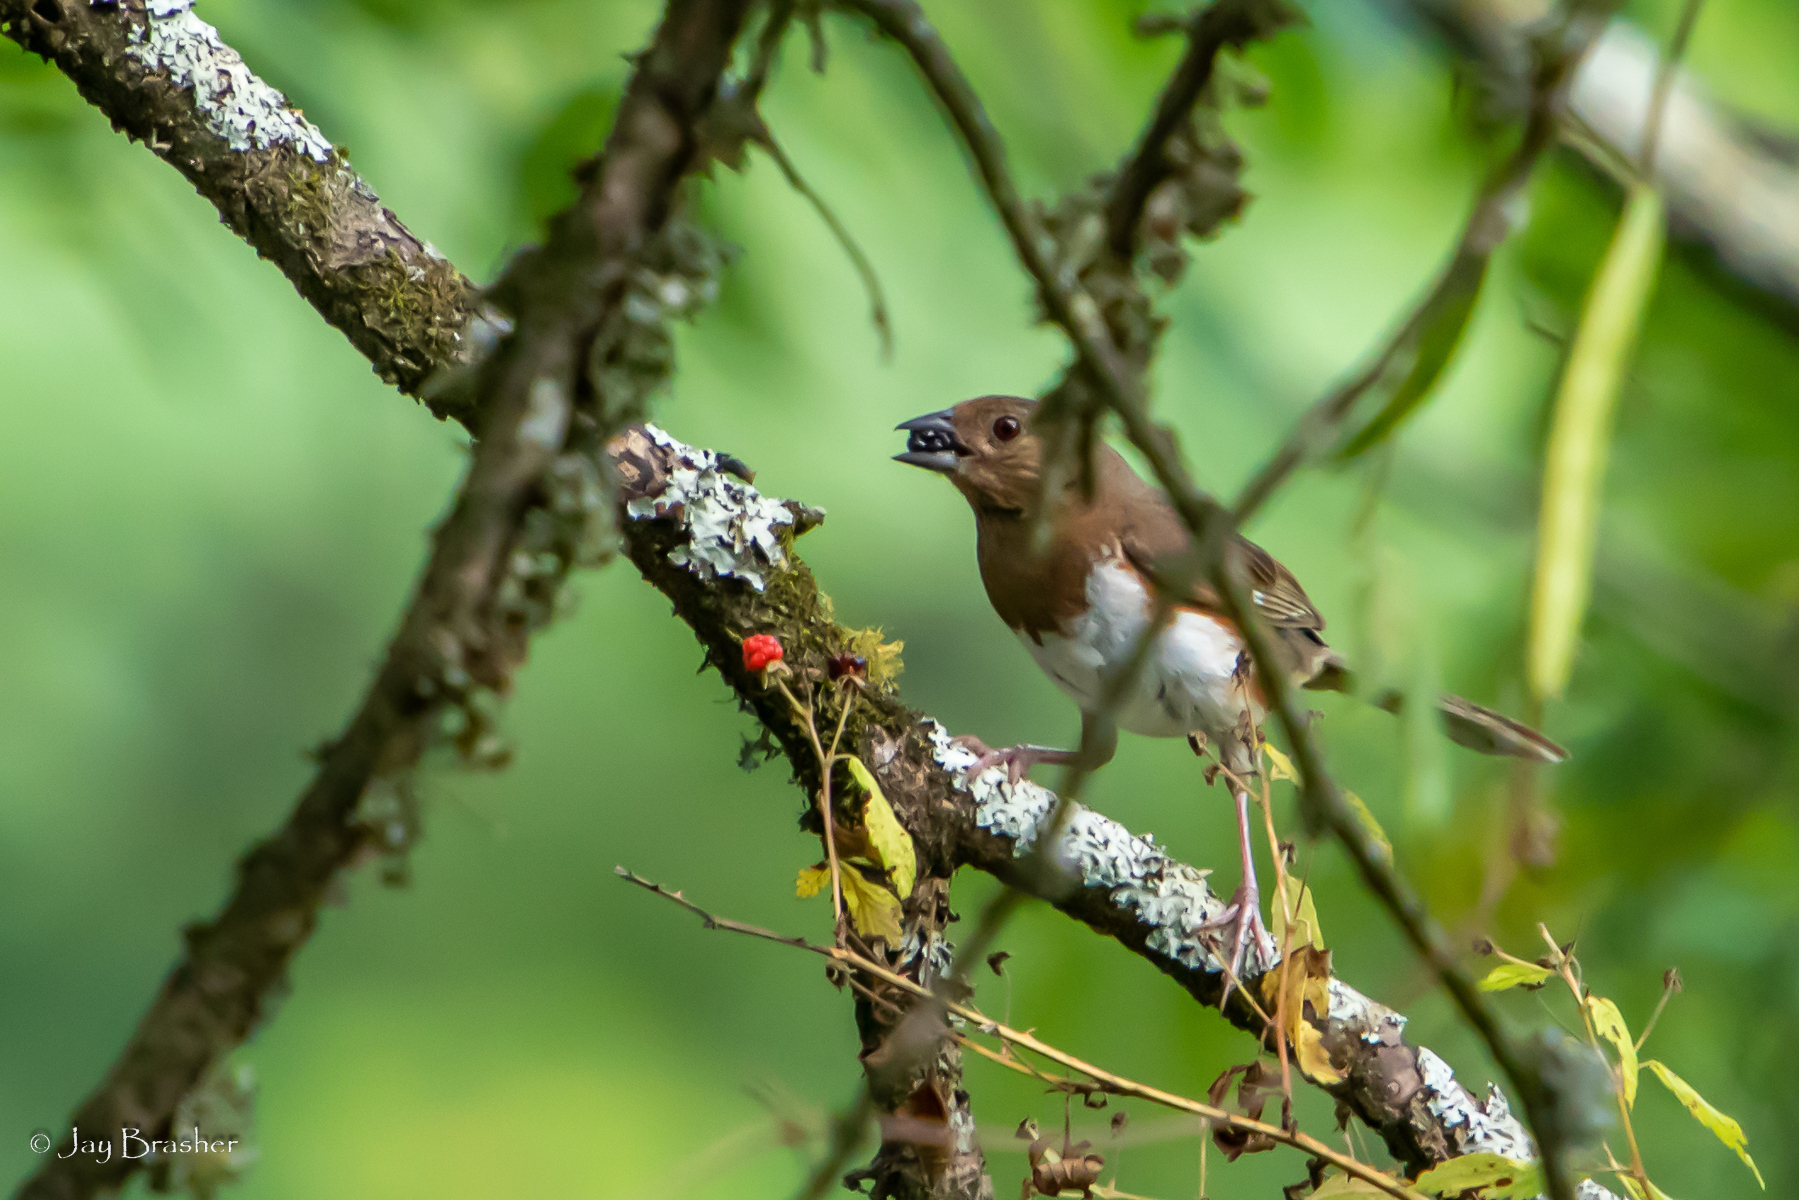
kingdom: Animalia
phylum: Chordata
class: Aves
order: Passeriformes
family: Passerellidae
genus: Pipilo
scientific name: Pipilo erythrophthalmus
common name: Eastern towhee
